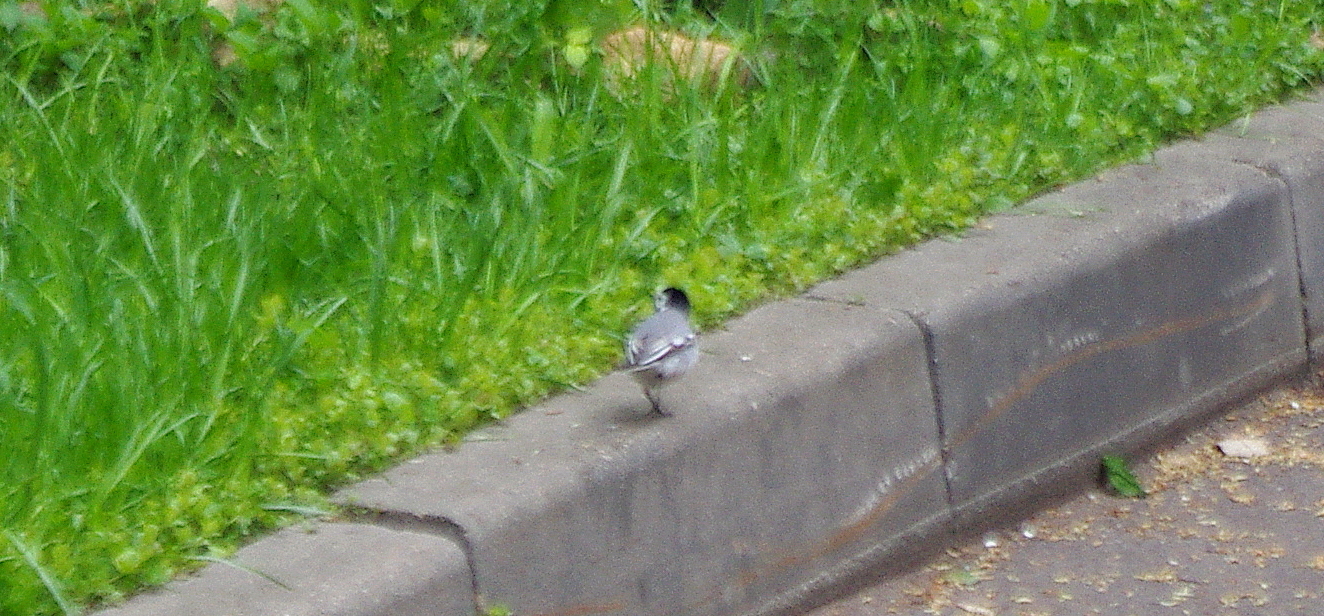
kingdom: Animalia
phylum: Chordata
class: Aves
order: Passeriformes
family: Motacillidae
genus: Motacilla
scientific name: Motacilla alba
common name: White wagtail
